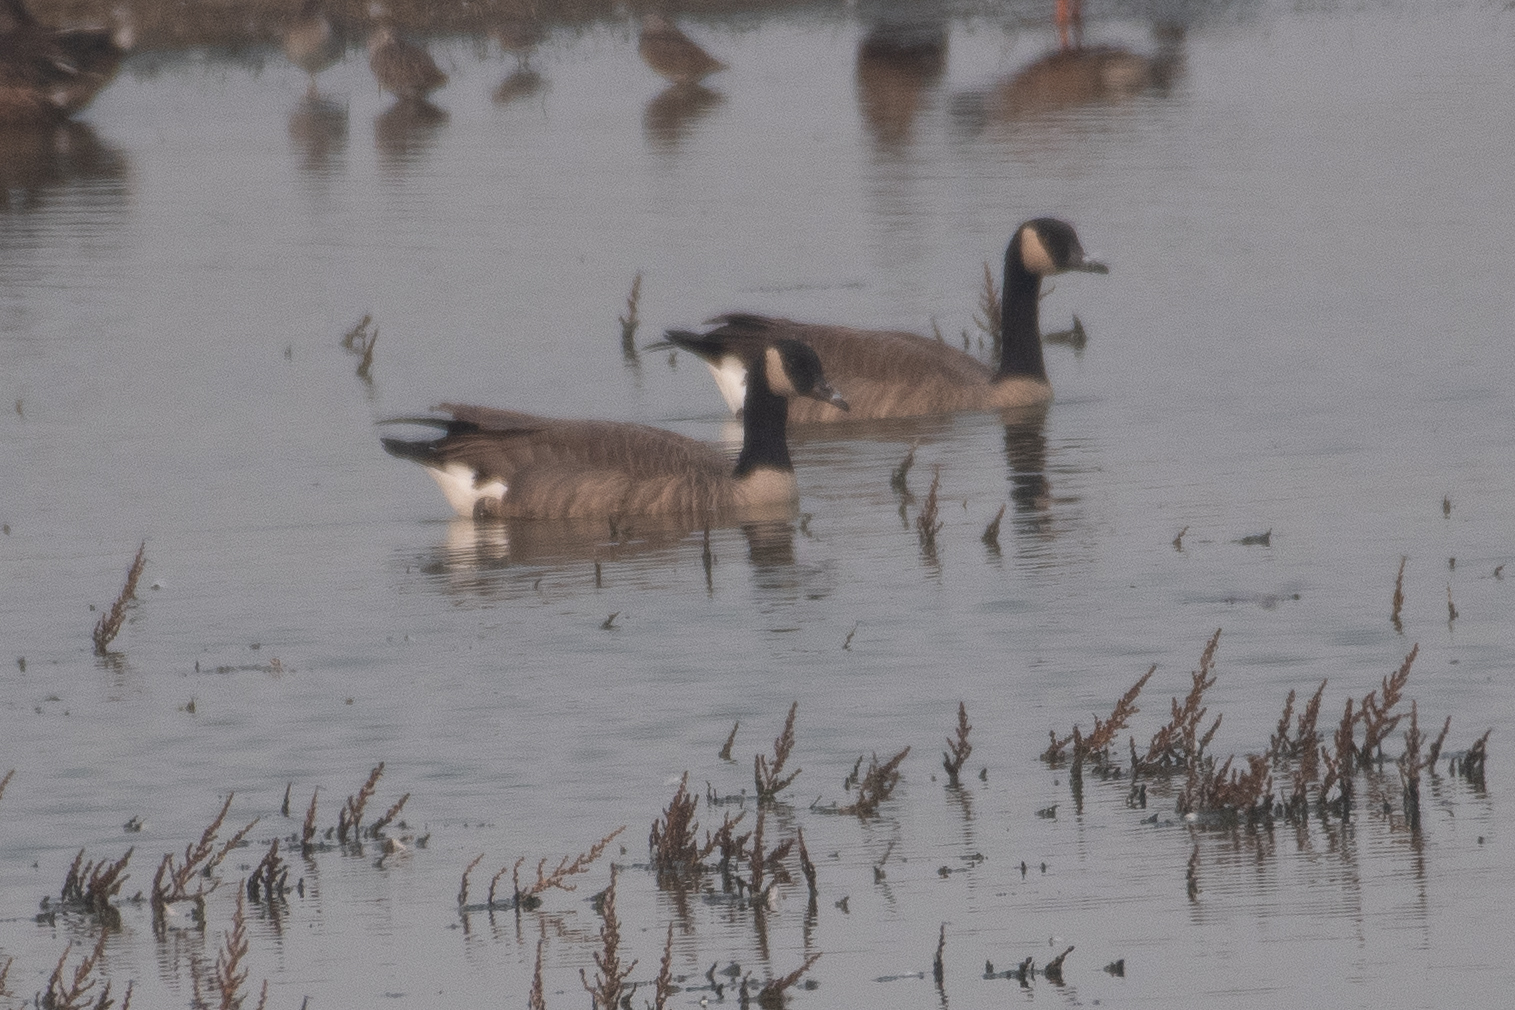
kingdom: Animalia
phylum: Chordata
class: Aves
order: Anseriformes
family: Anatidae
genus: Branta
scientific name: Branta canadensis
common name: Canada goose
